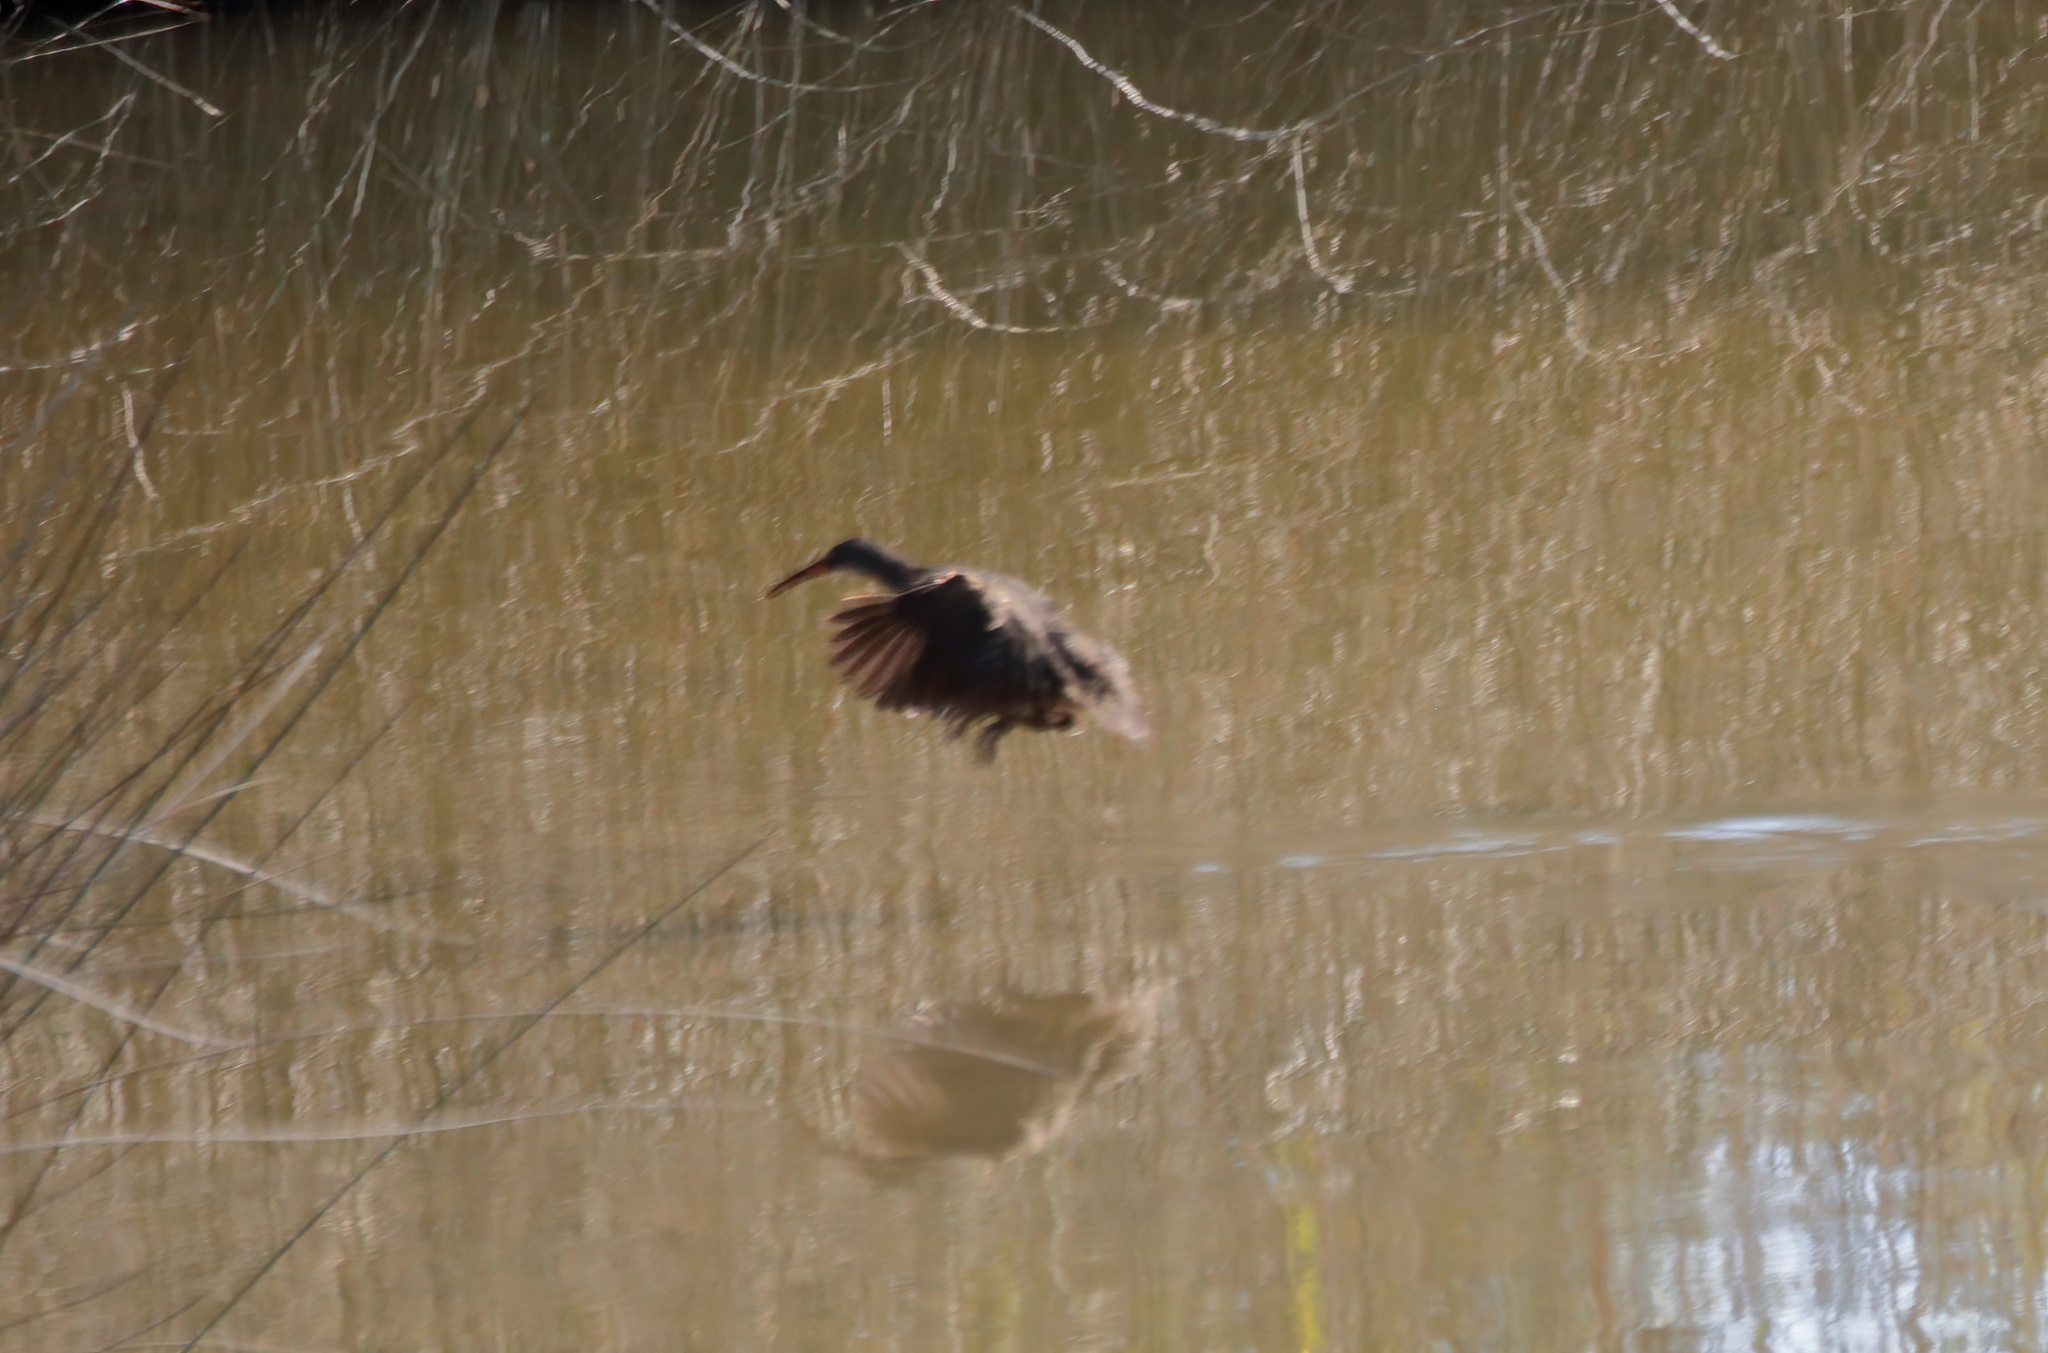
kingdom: Animalia
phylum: Chordata
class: Aves
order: Gruiformes
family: Rallidae
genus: Rallus
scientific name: Rallus crepitans
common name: Clapper rail
